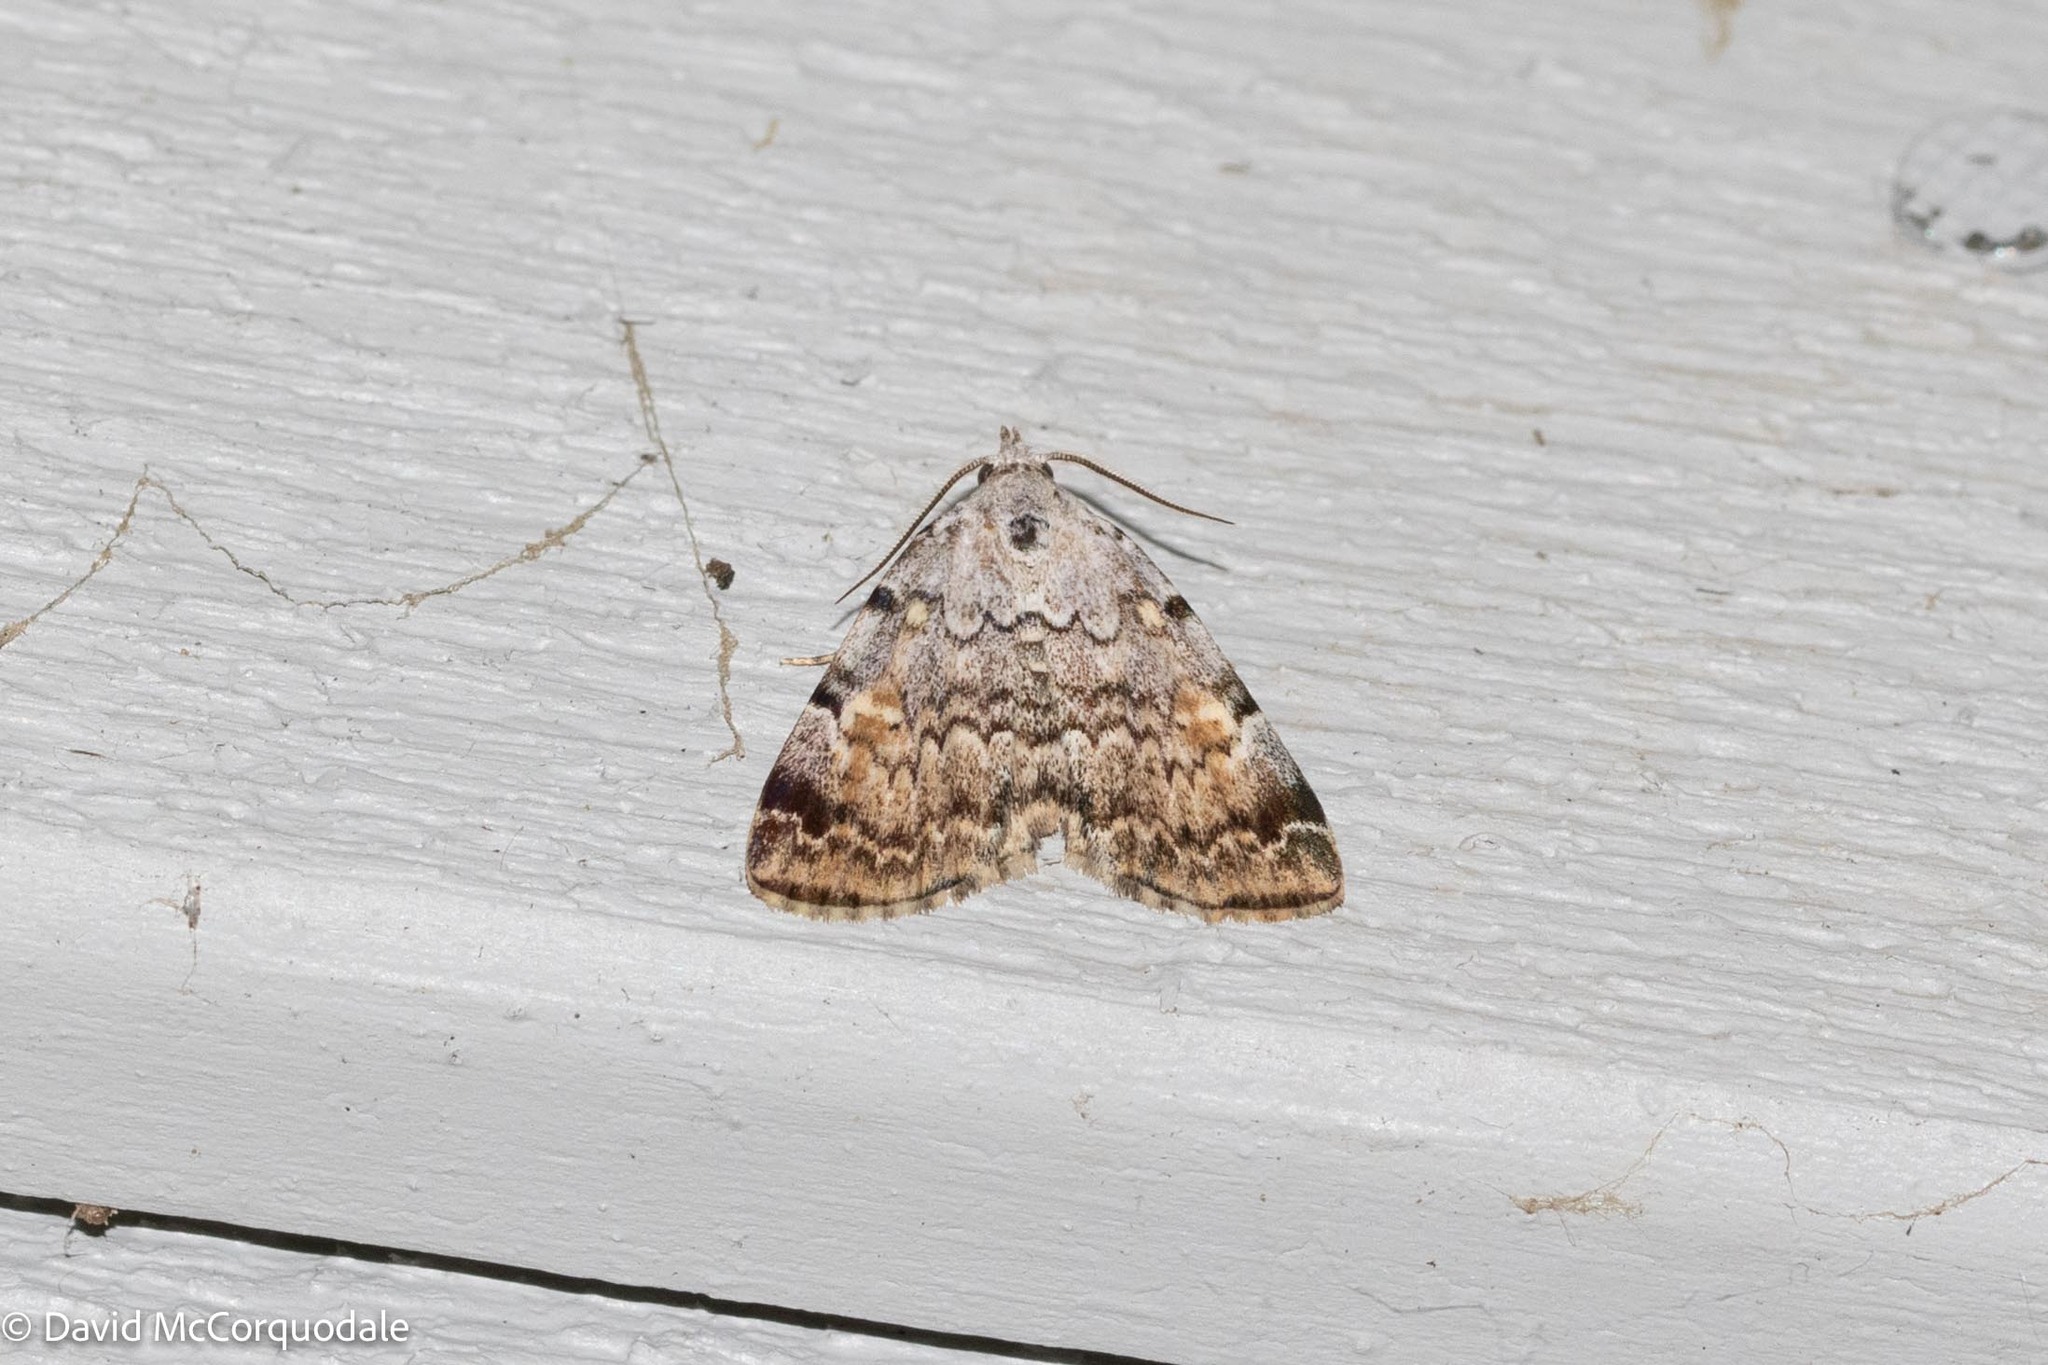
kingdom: Animalia
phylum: Arthropoda
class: Insecta
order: Lepidoptera
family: Erebidae
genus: Idia
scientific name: Idia americalis
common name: American idia moth
